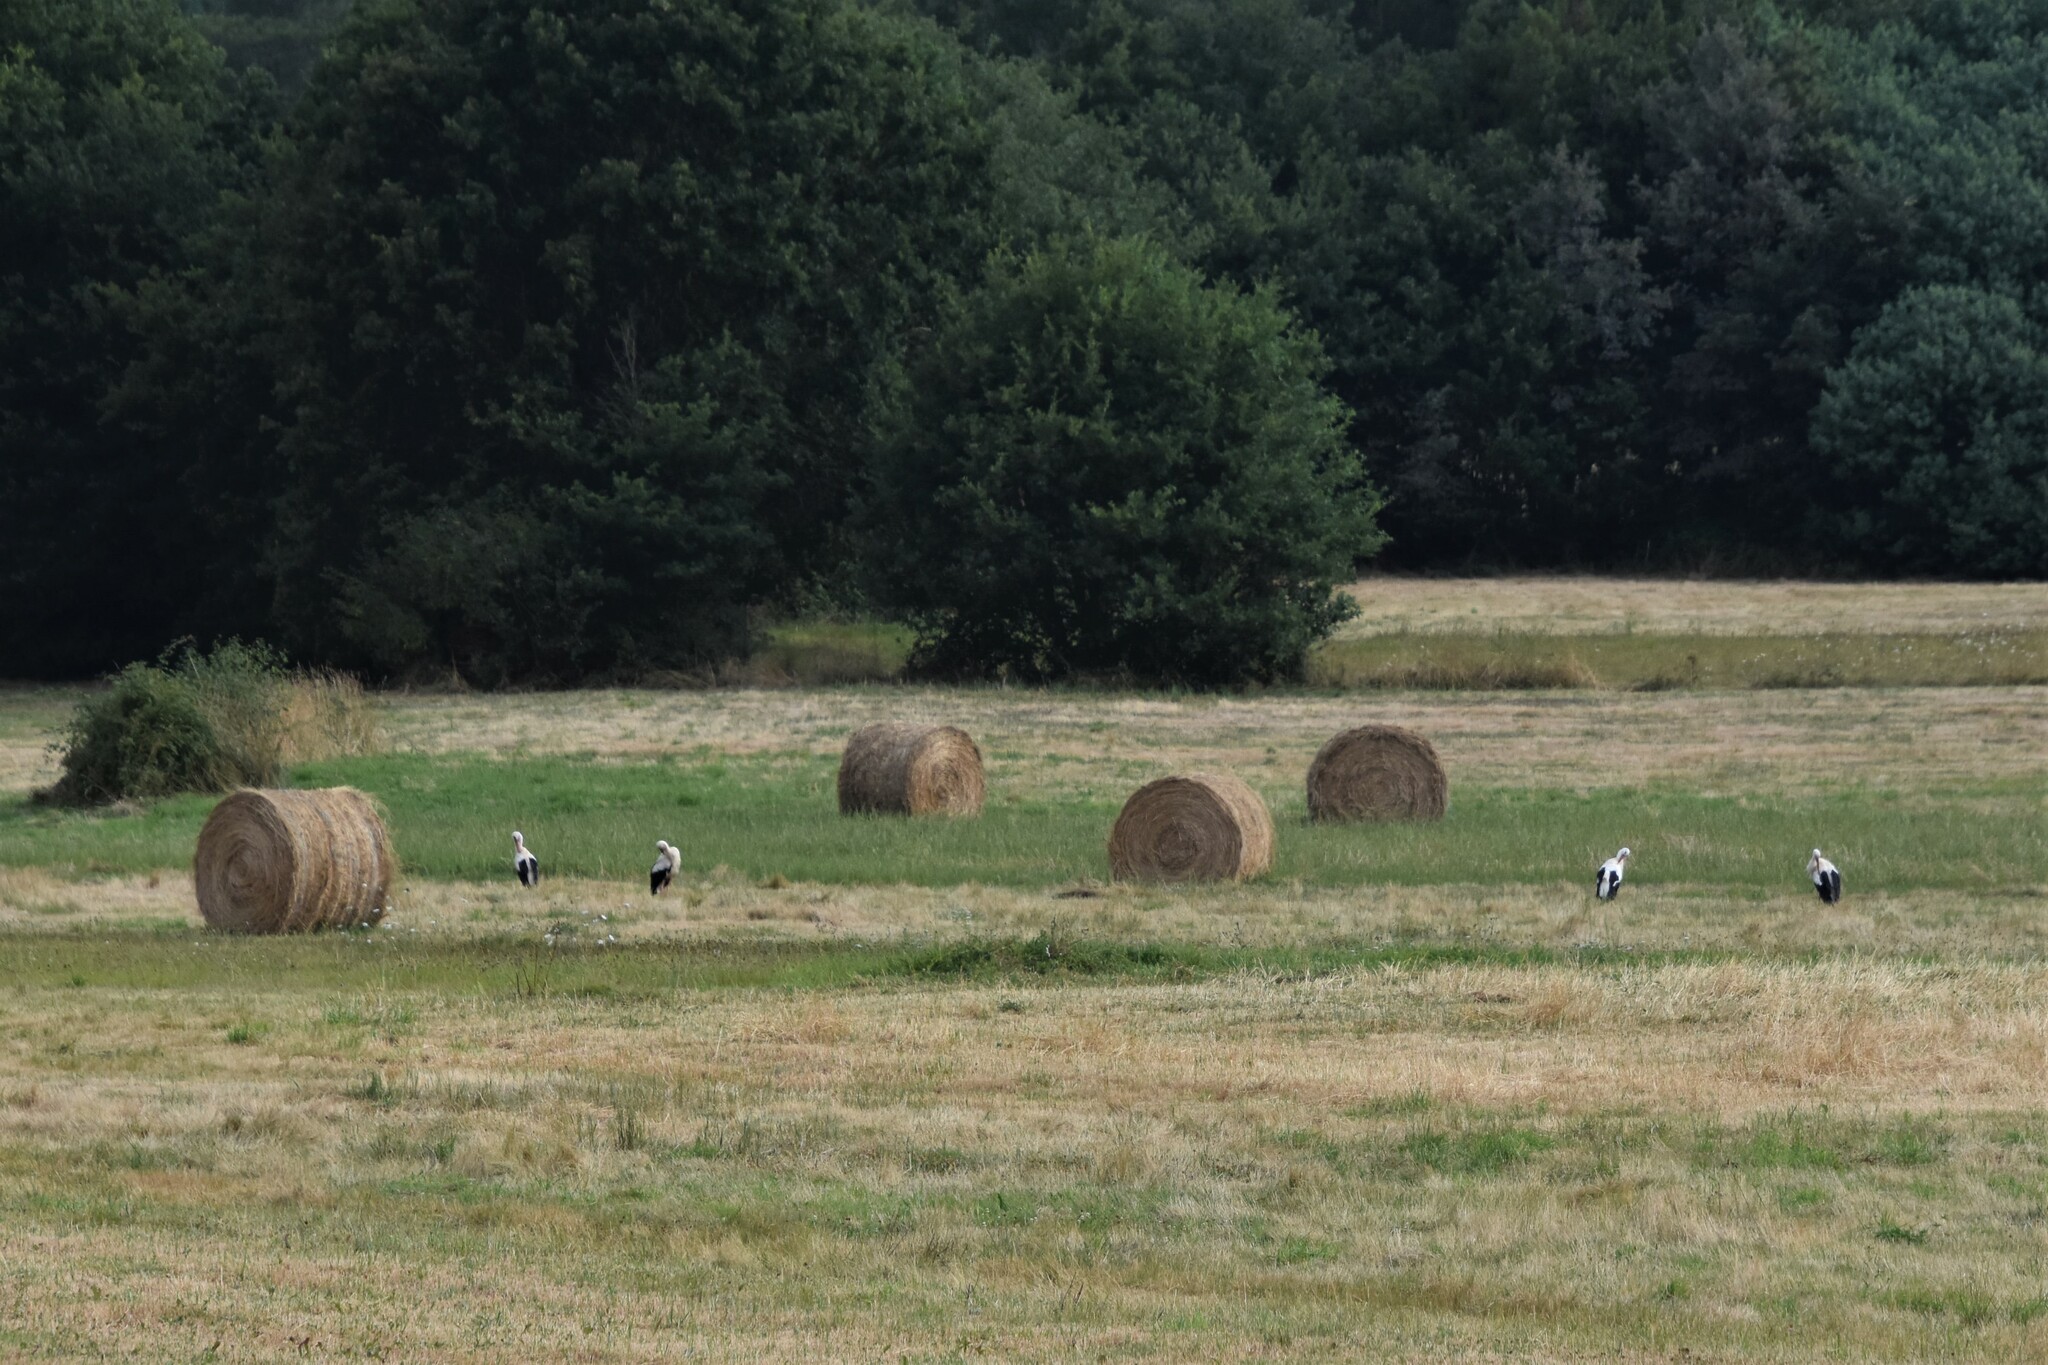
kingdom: Animalia
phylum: Chordata
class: Aves
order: Ciconiiformes
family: Ciconiidae
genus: Ciconia
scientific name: Ciconia ciconia
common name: White stork
